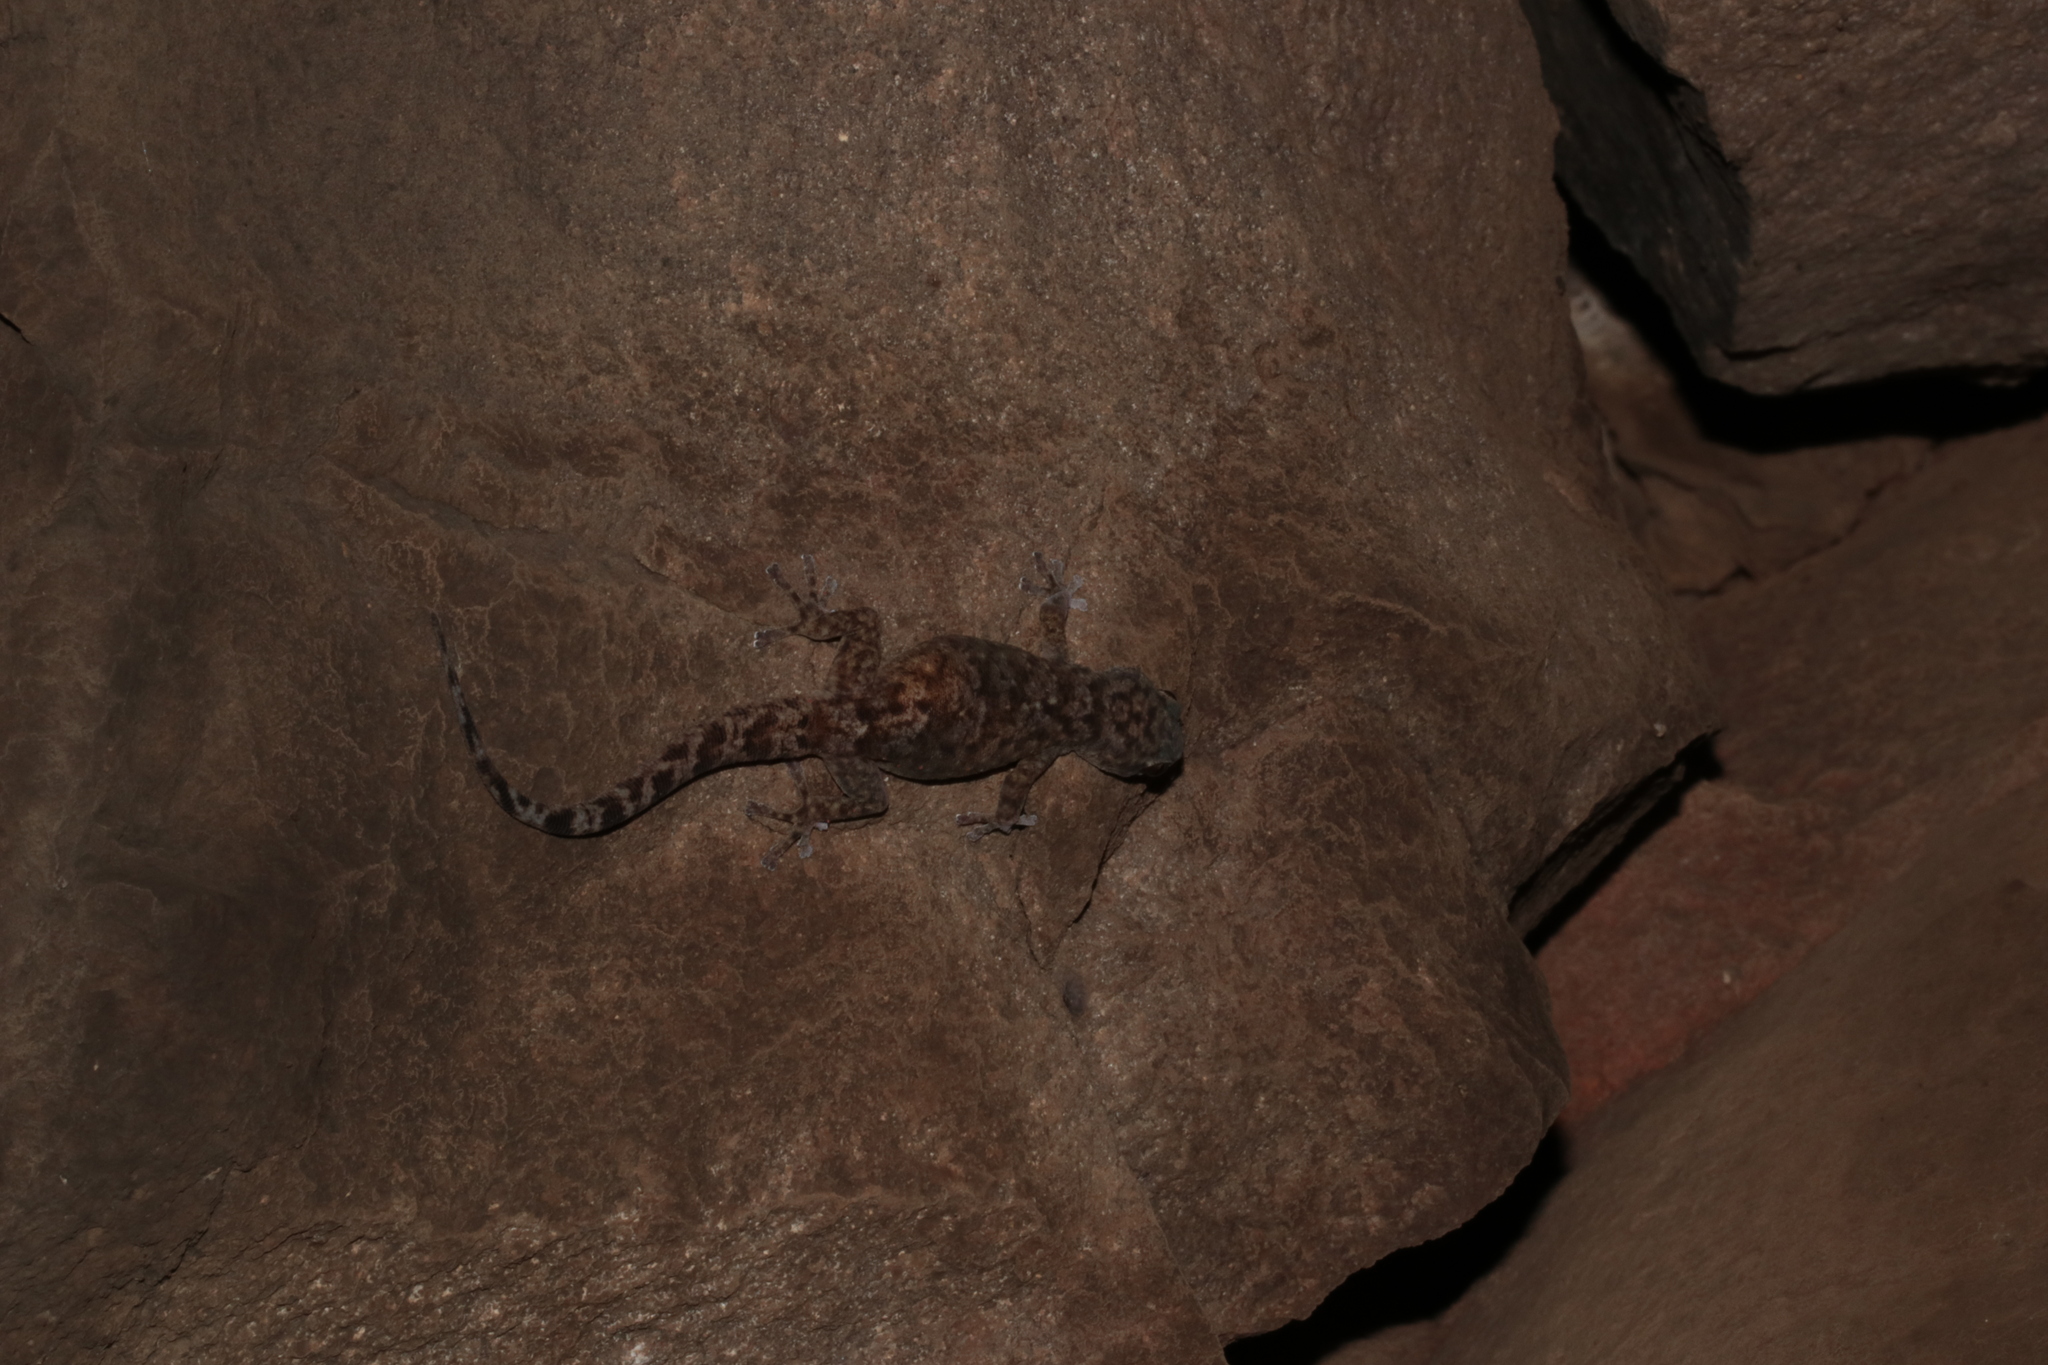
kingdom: Animalia
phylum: Chordata
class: Squamata
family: Gekkonidae
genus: Afroedura
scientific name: Afroedura pienaari
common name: Pienaar’s rock gecko
